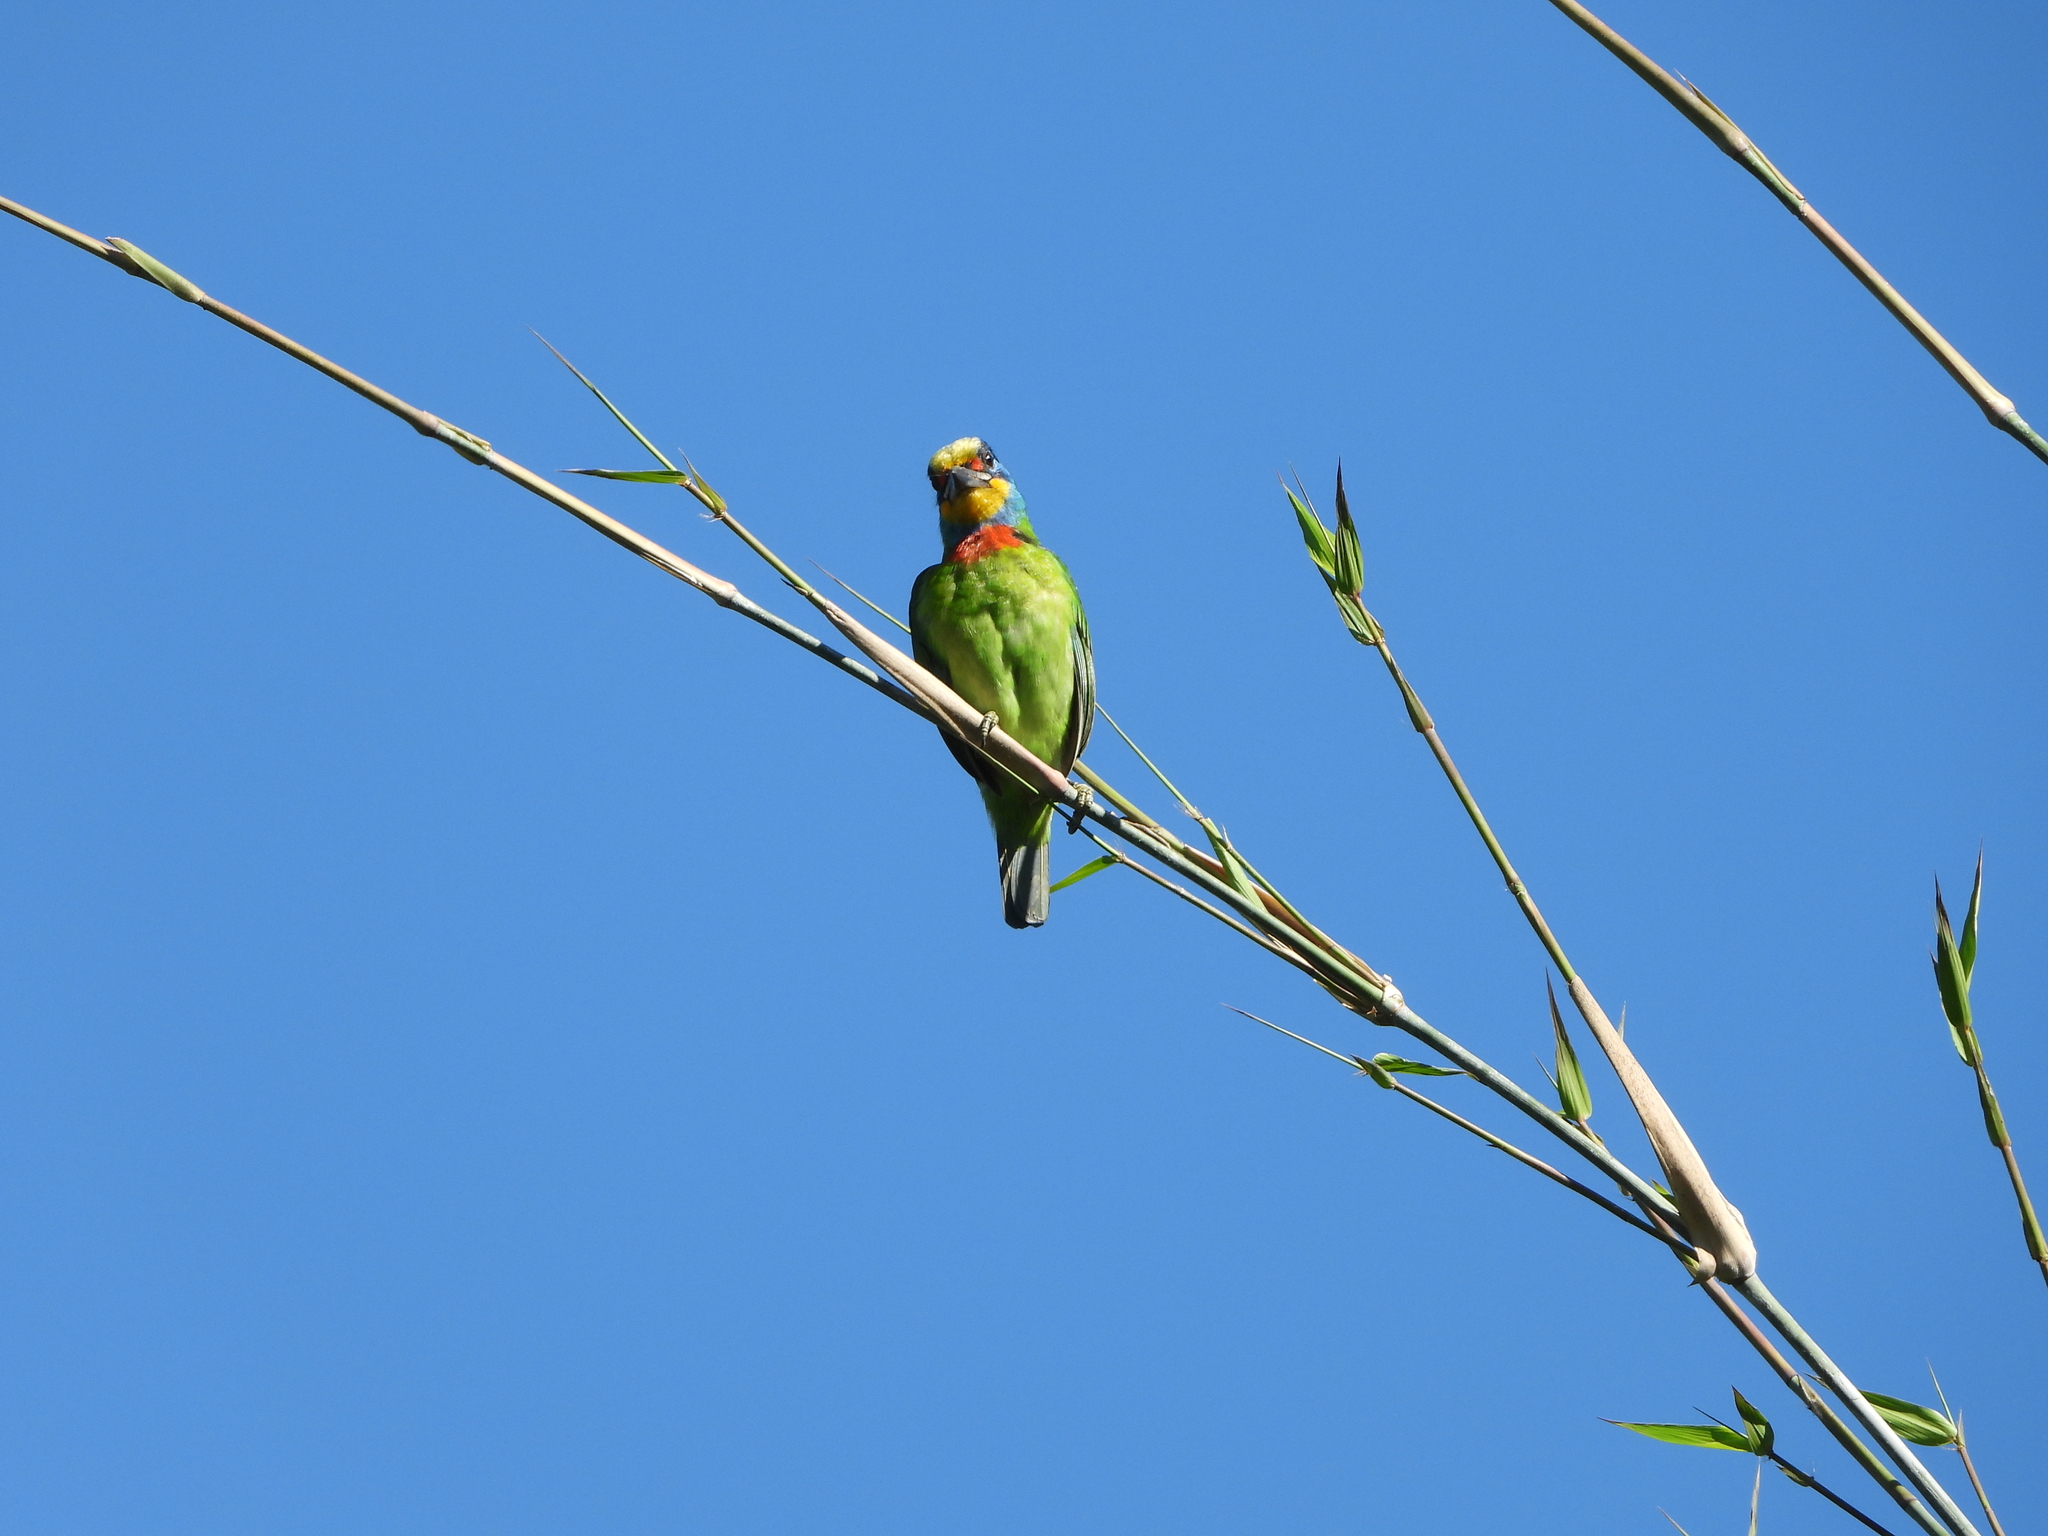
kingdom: Animalia
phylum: Chordata
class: Aves
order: Piciformes
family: Megalaimidae
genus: Psilopogon
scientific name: Psilopogon nuchalis
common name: Taiwan barbet
